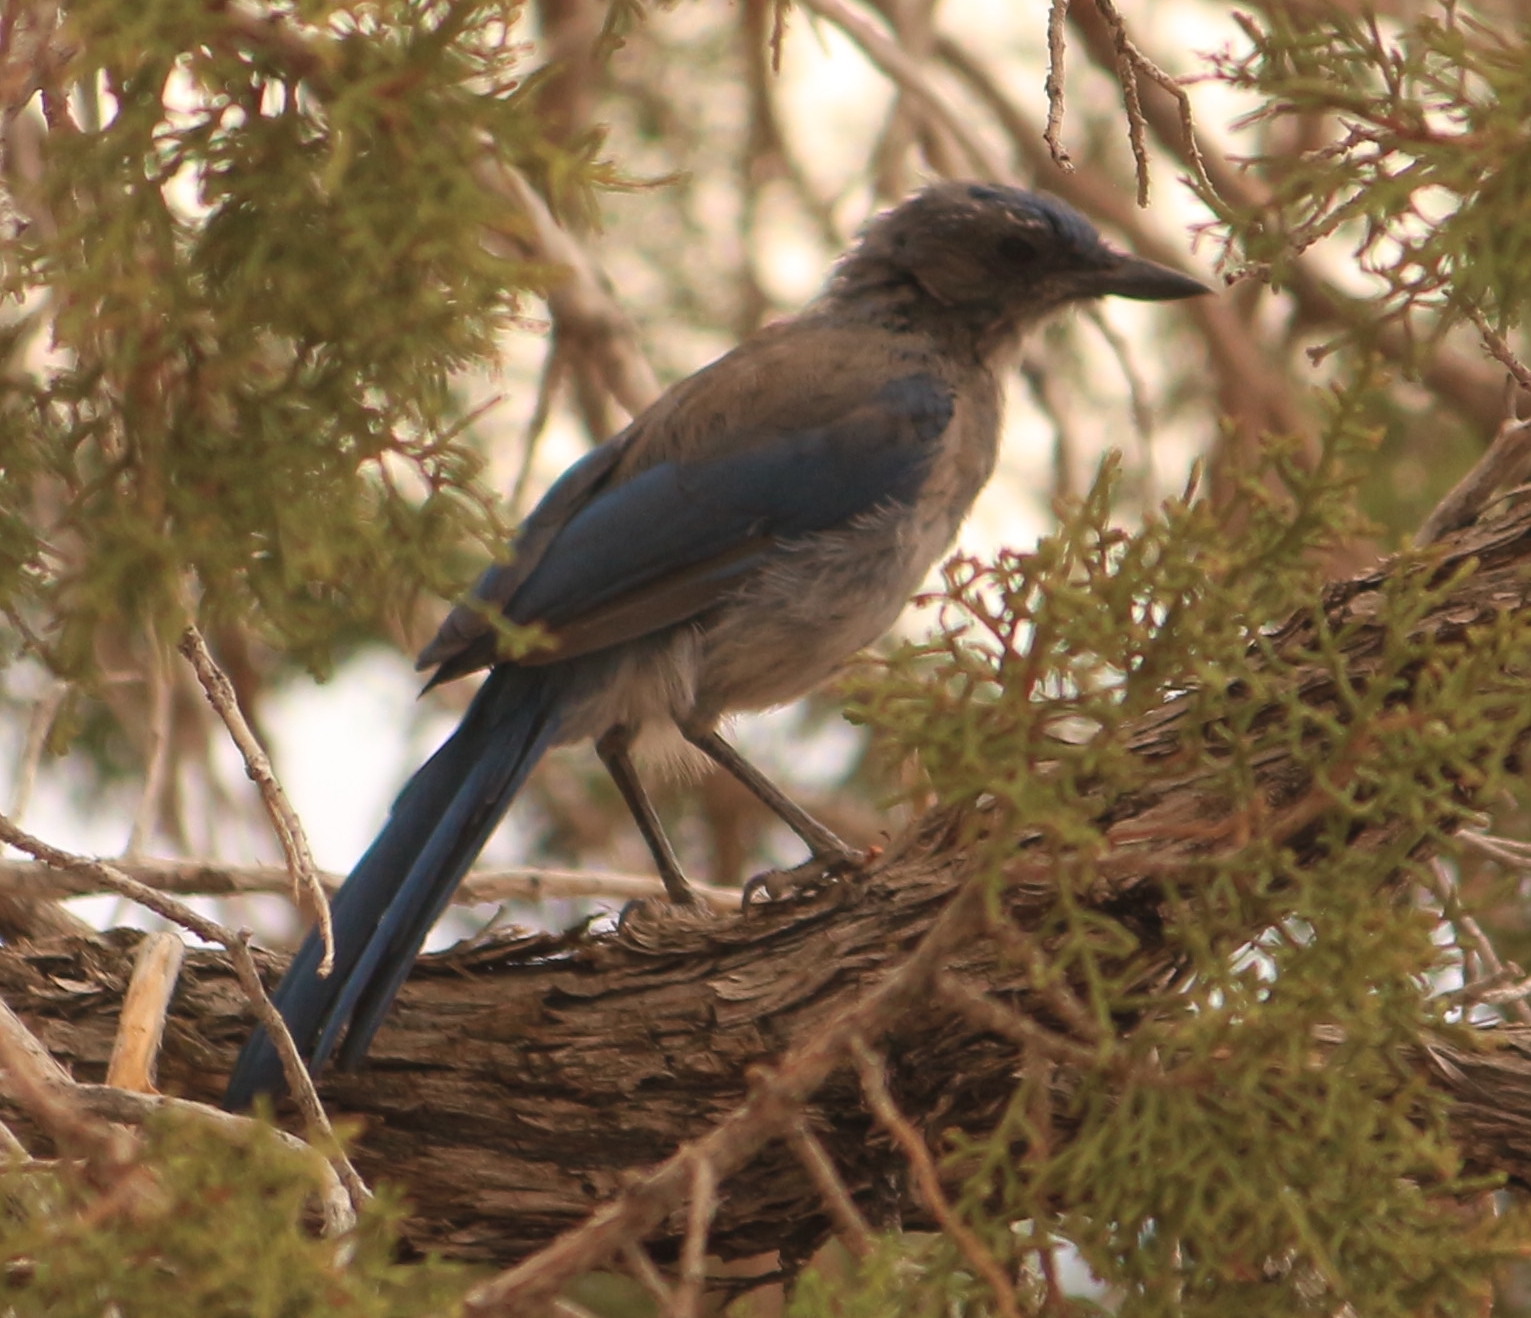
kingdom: Animalia
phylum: Chordata
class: Aves
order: Passeriformes
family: Corvidae
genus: Aphelocoma
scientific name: Aphelocoma woodhouseii
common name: Woodhouse's scrub-jay
